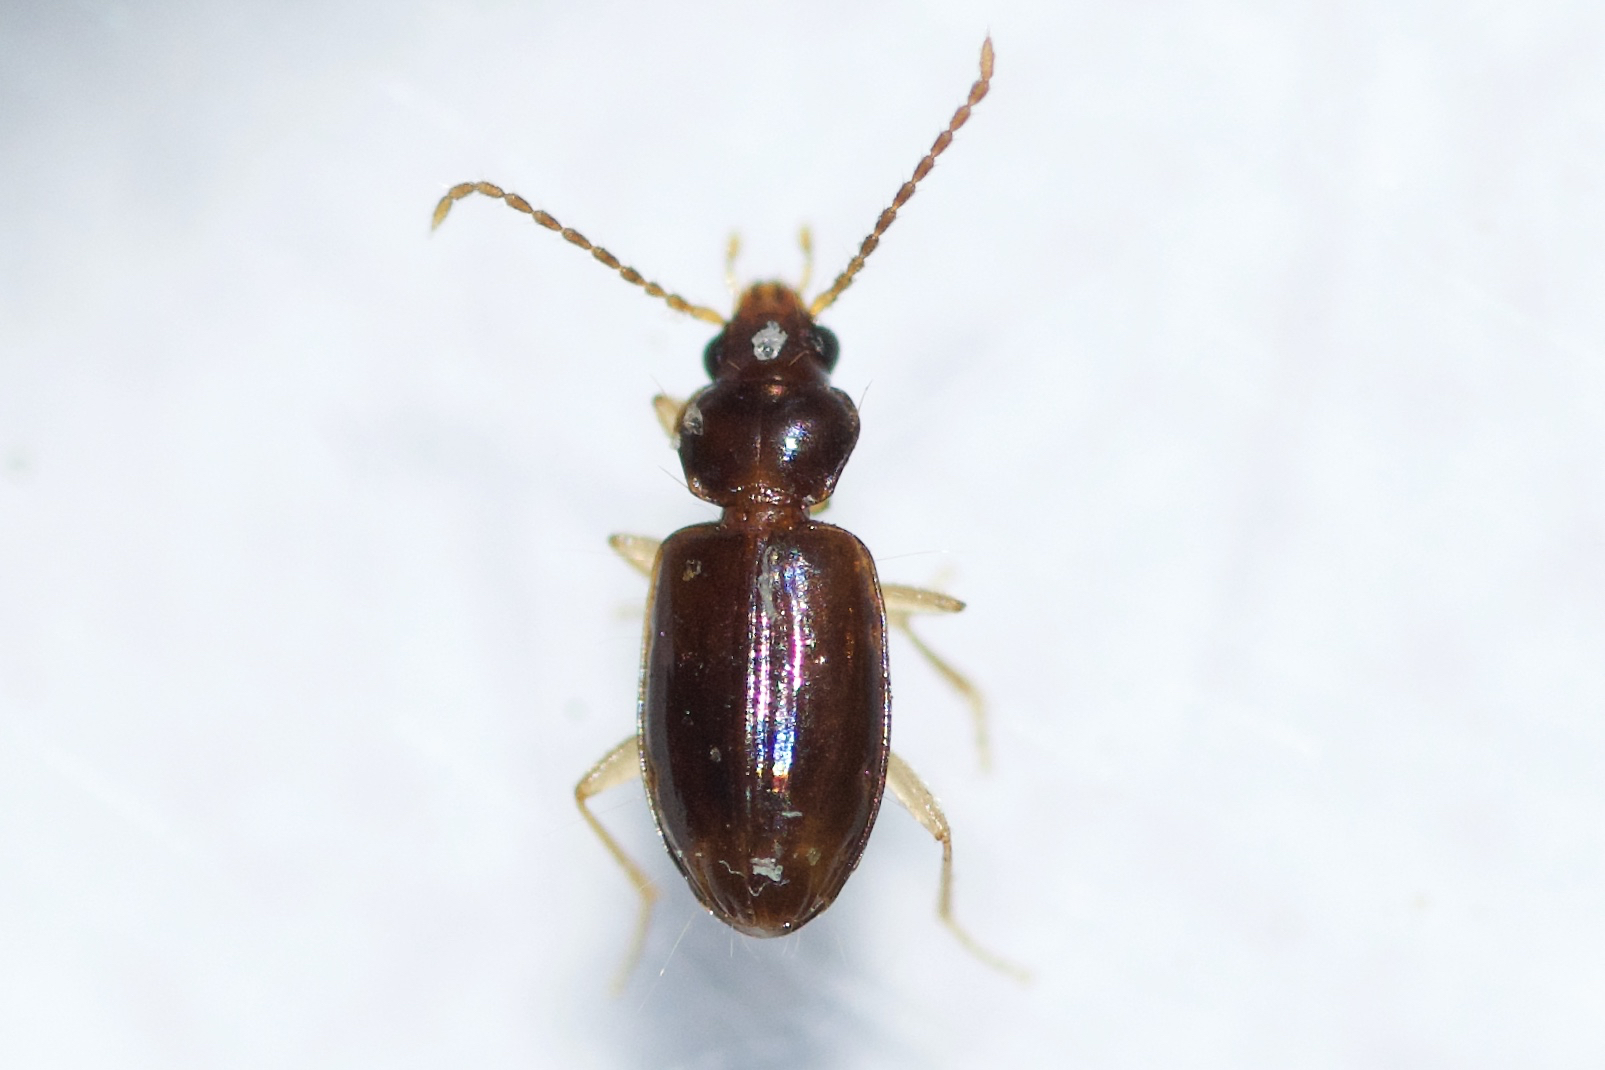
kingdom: Animalia
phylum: Arthropoda
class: Insecta
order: Coleoptera
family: Carabidae
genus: Tachys
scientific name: Tachys oblitus
